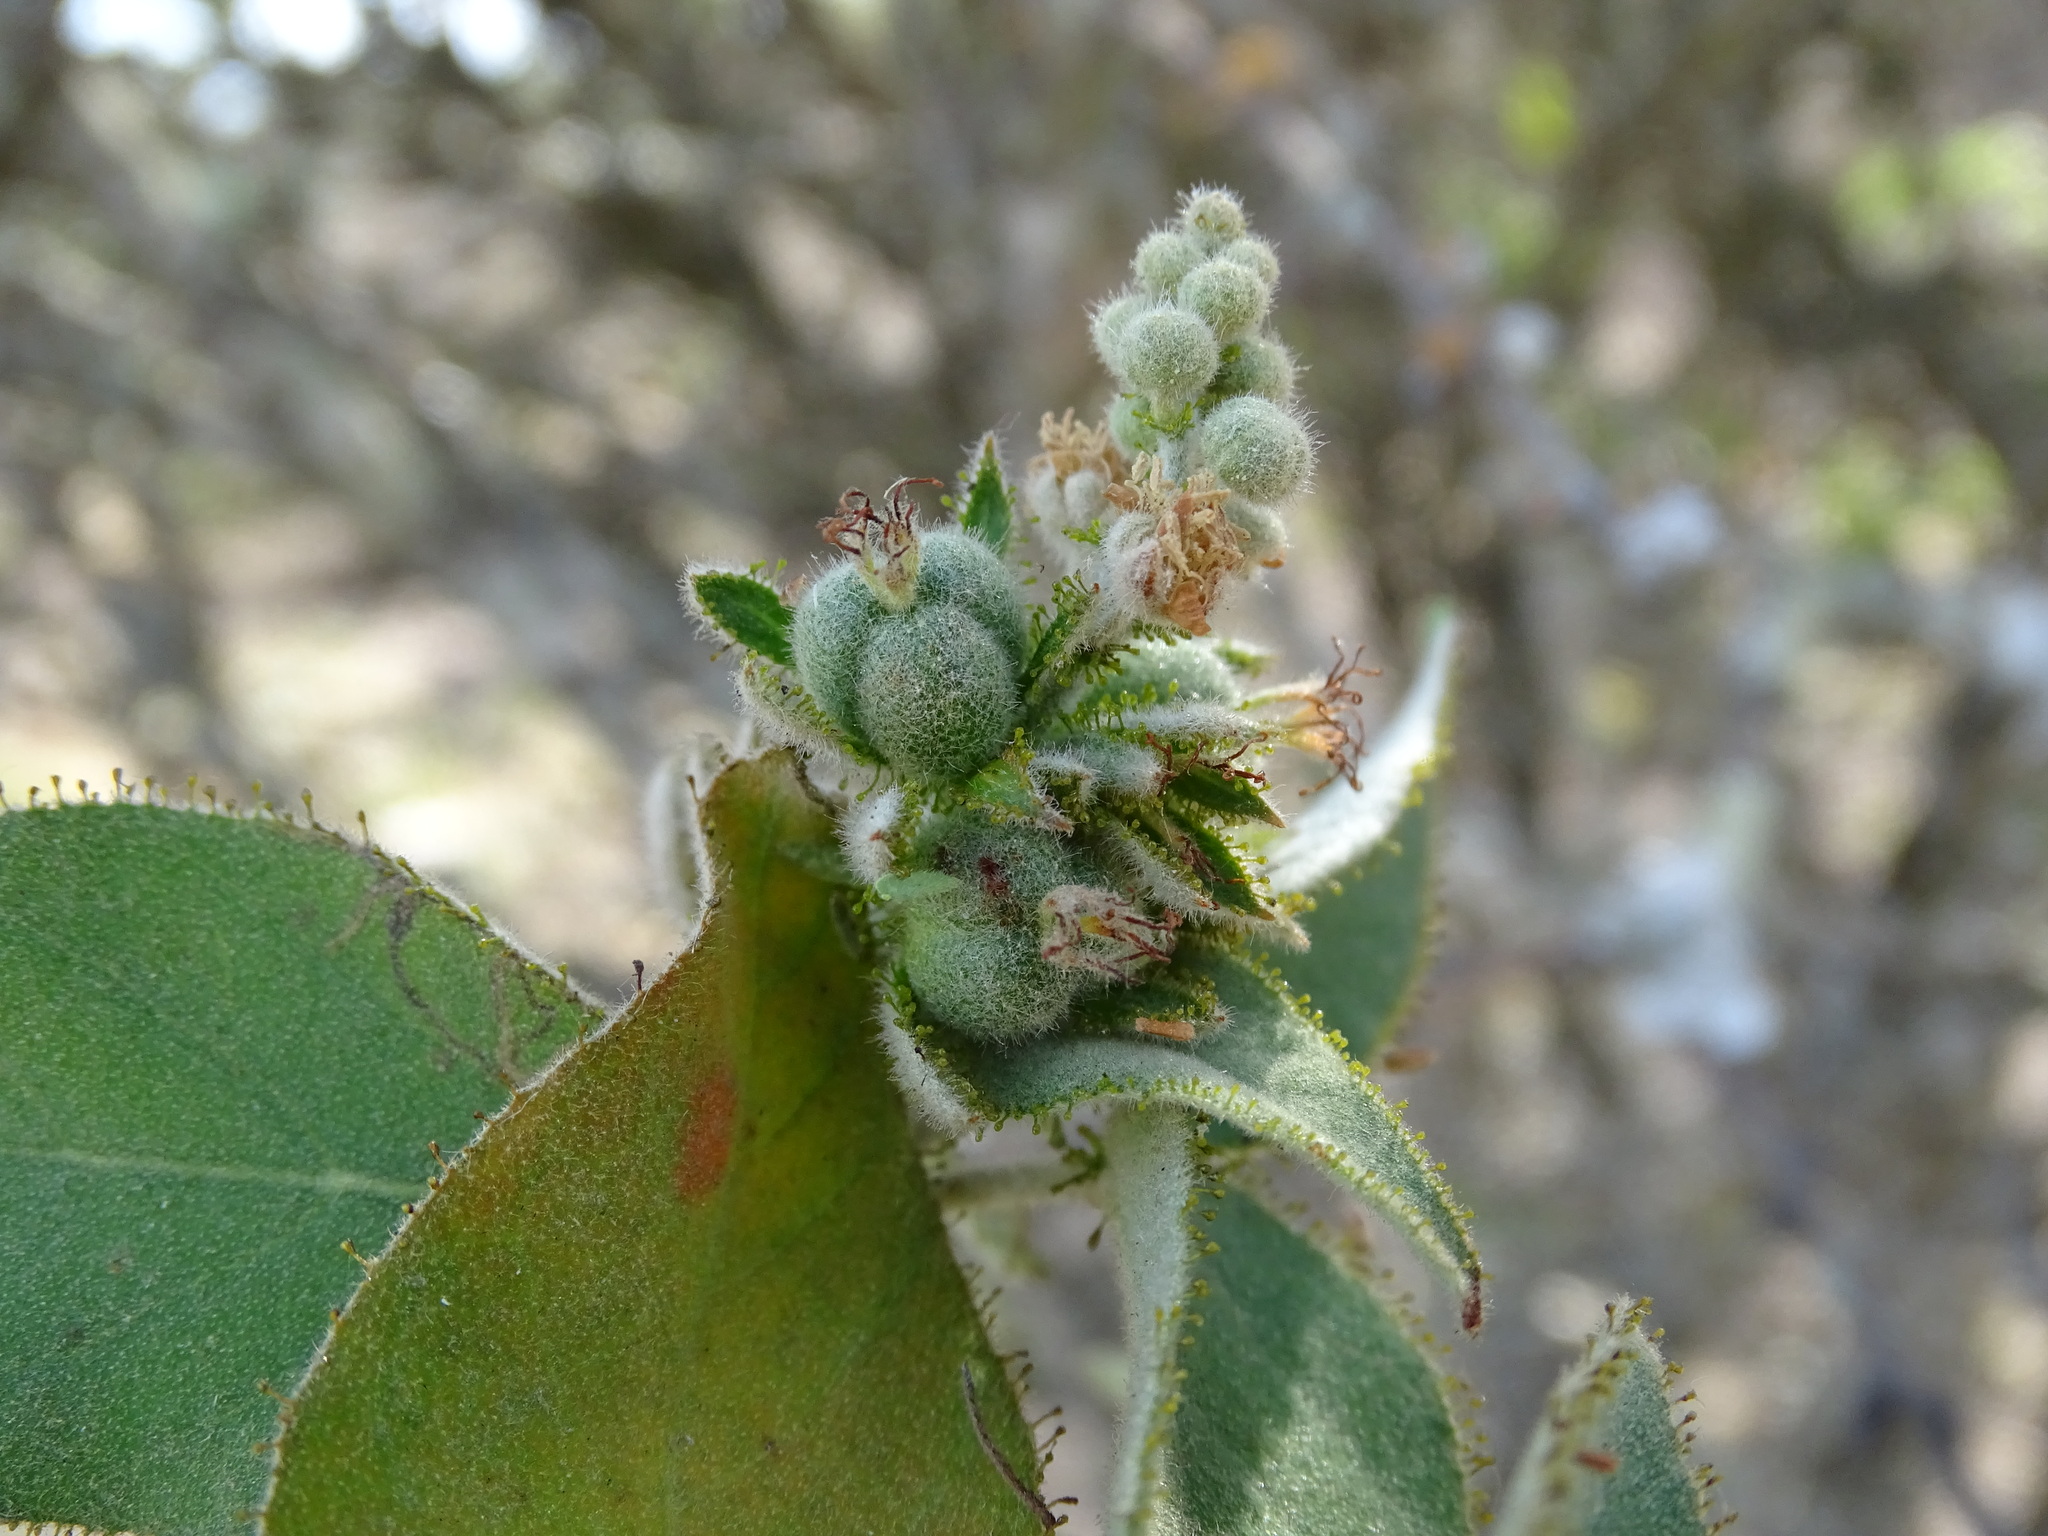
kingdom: Plantae
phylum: Tracheophyta
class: Magnoliopsida
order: Malpighiales
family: Euphorbiaceae
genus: Croton
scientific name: Croton ciliatoglandulifer
